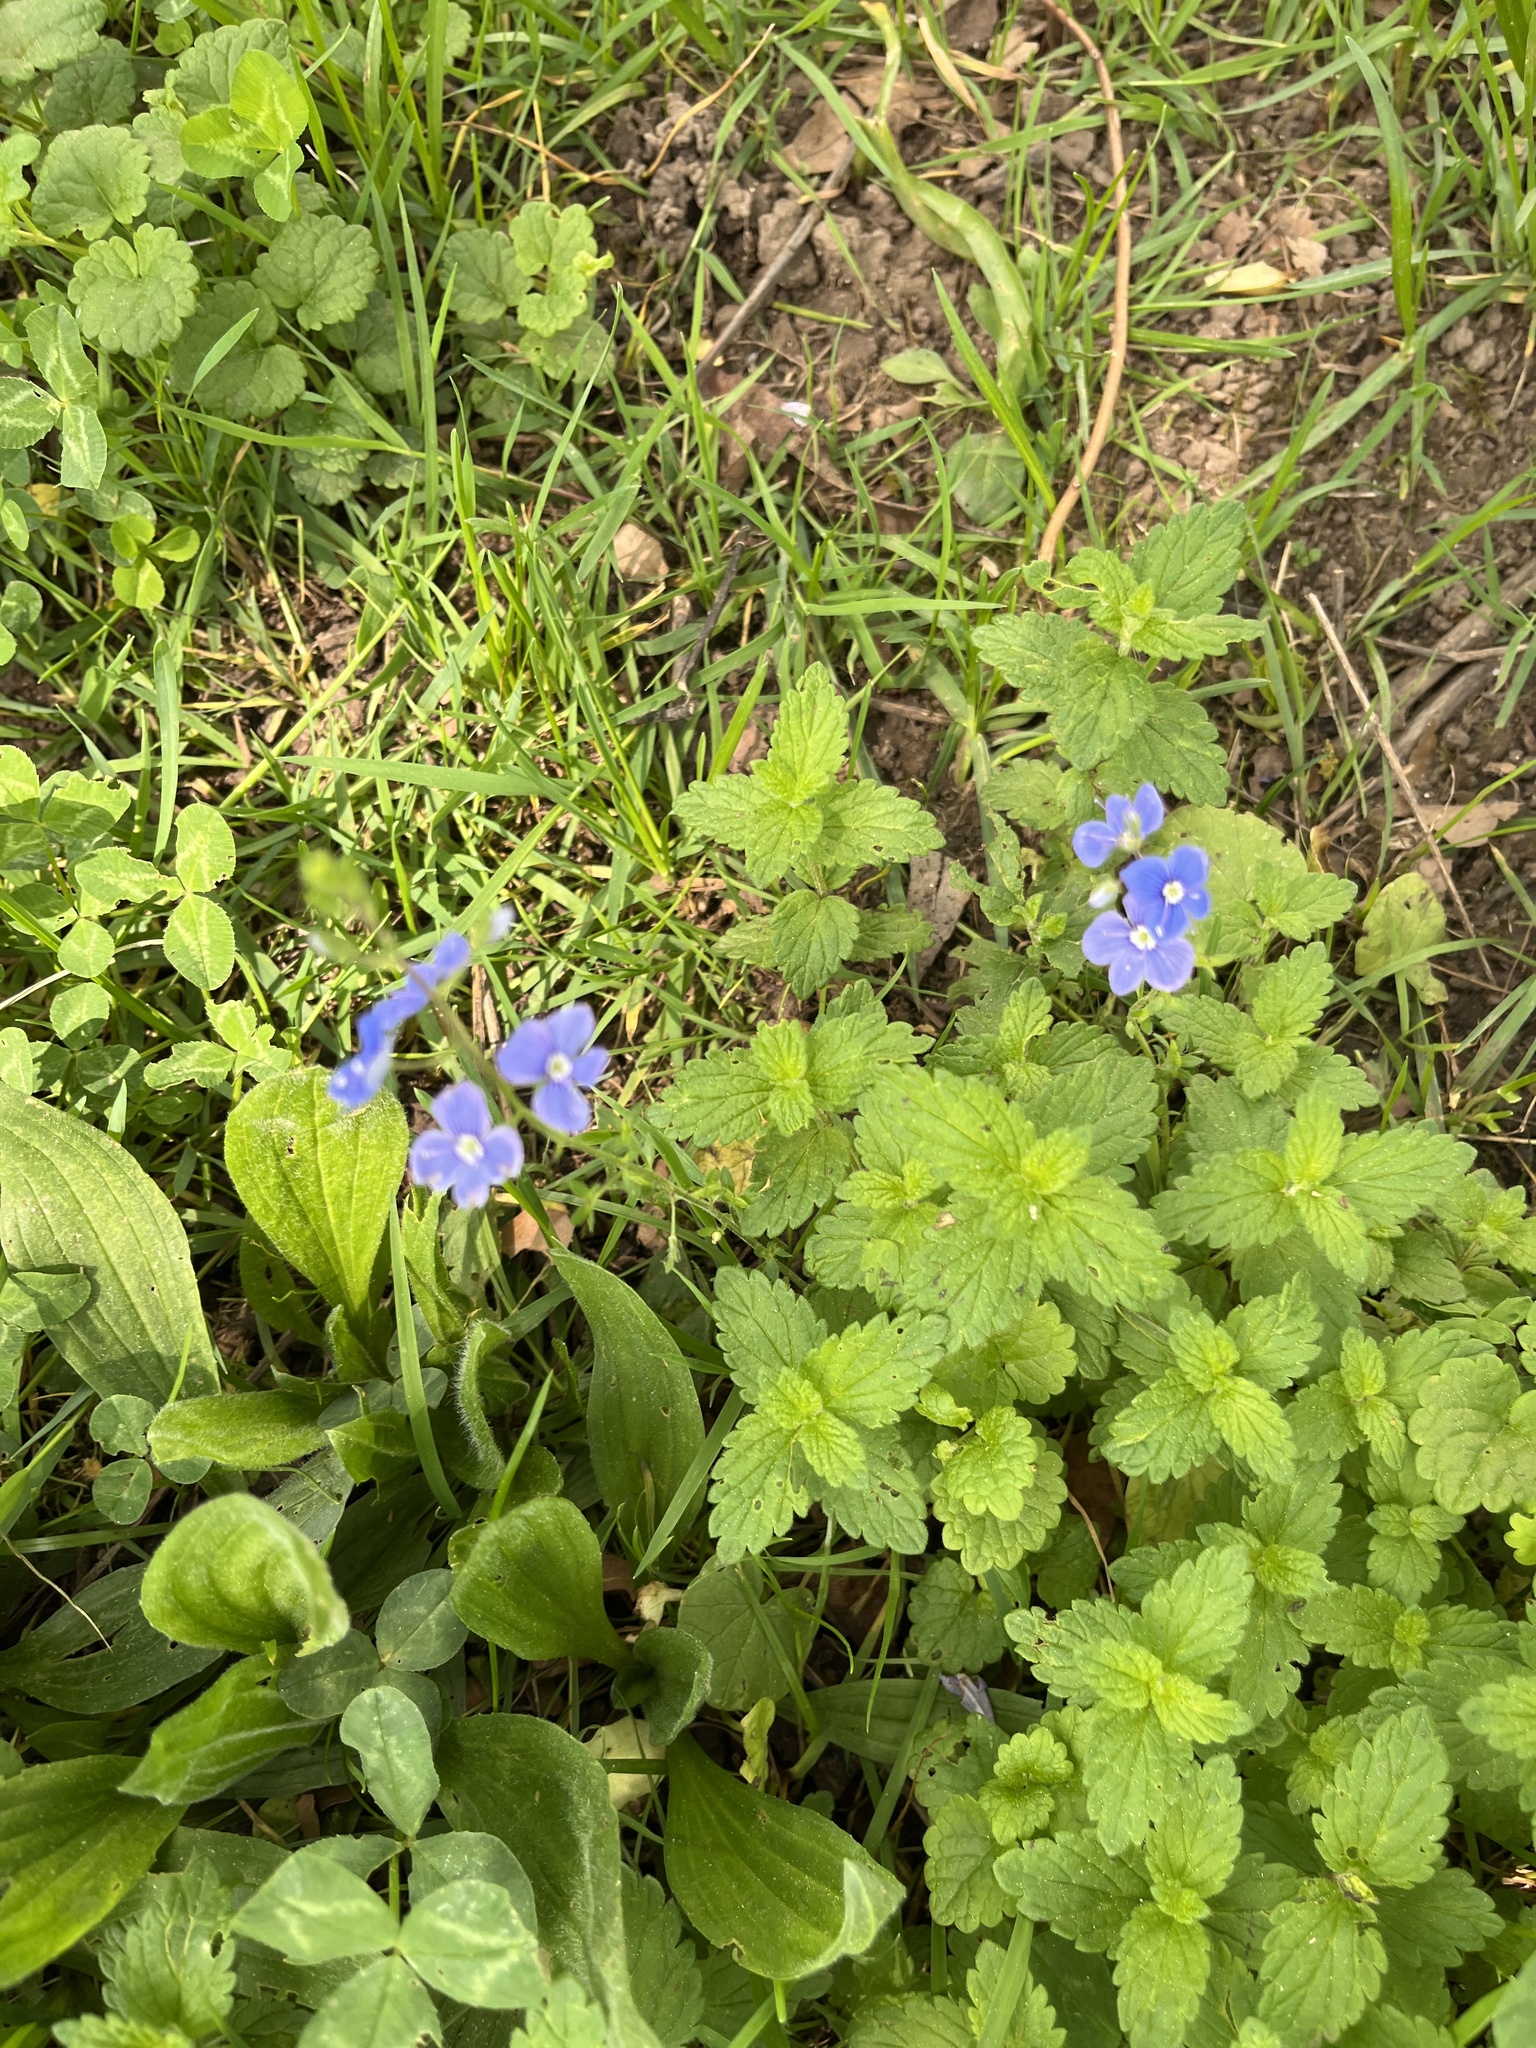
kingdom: Plantae
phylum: Tracheophyta
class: Magnoliopsida
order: Lamiales
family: Plantaginaceae
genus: Veronica
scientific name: Veronica chamaedrys
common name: Germander speedwell
